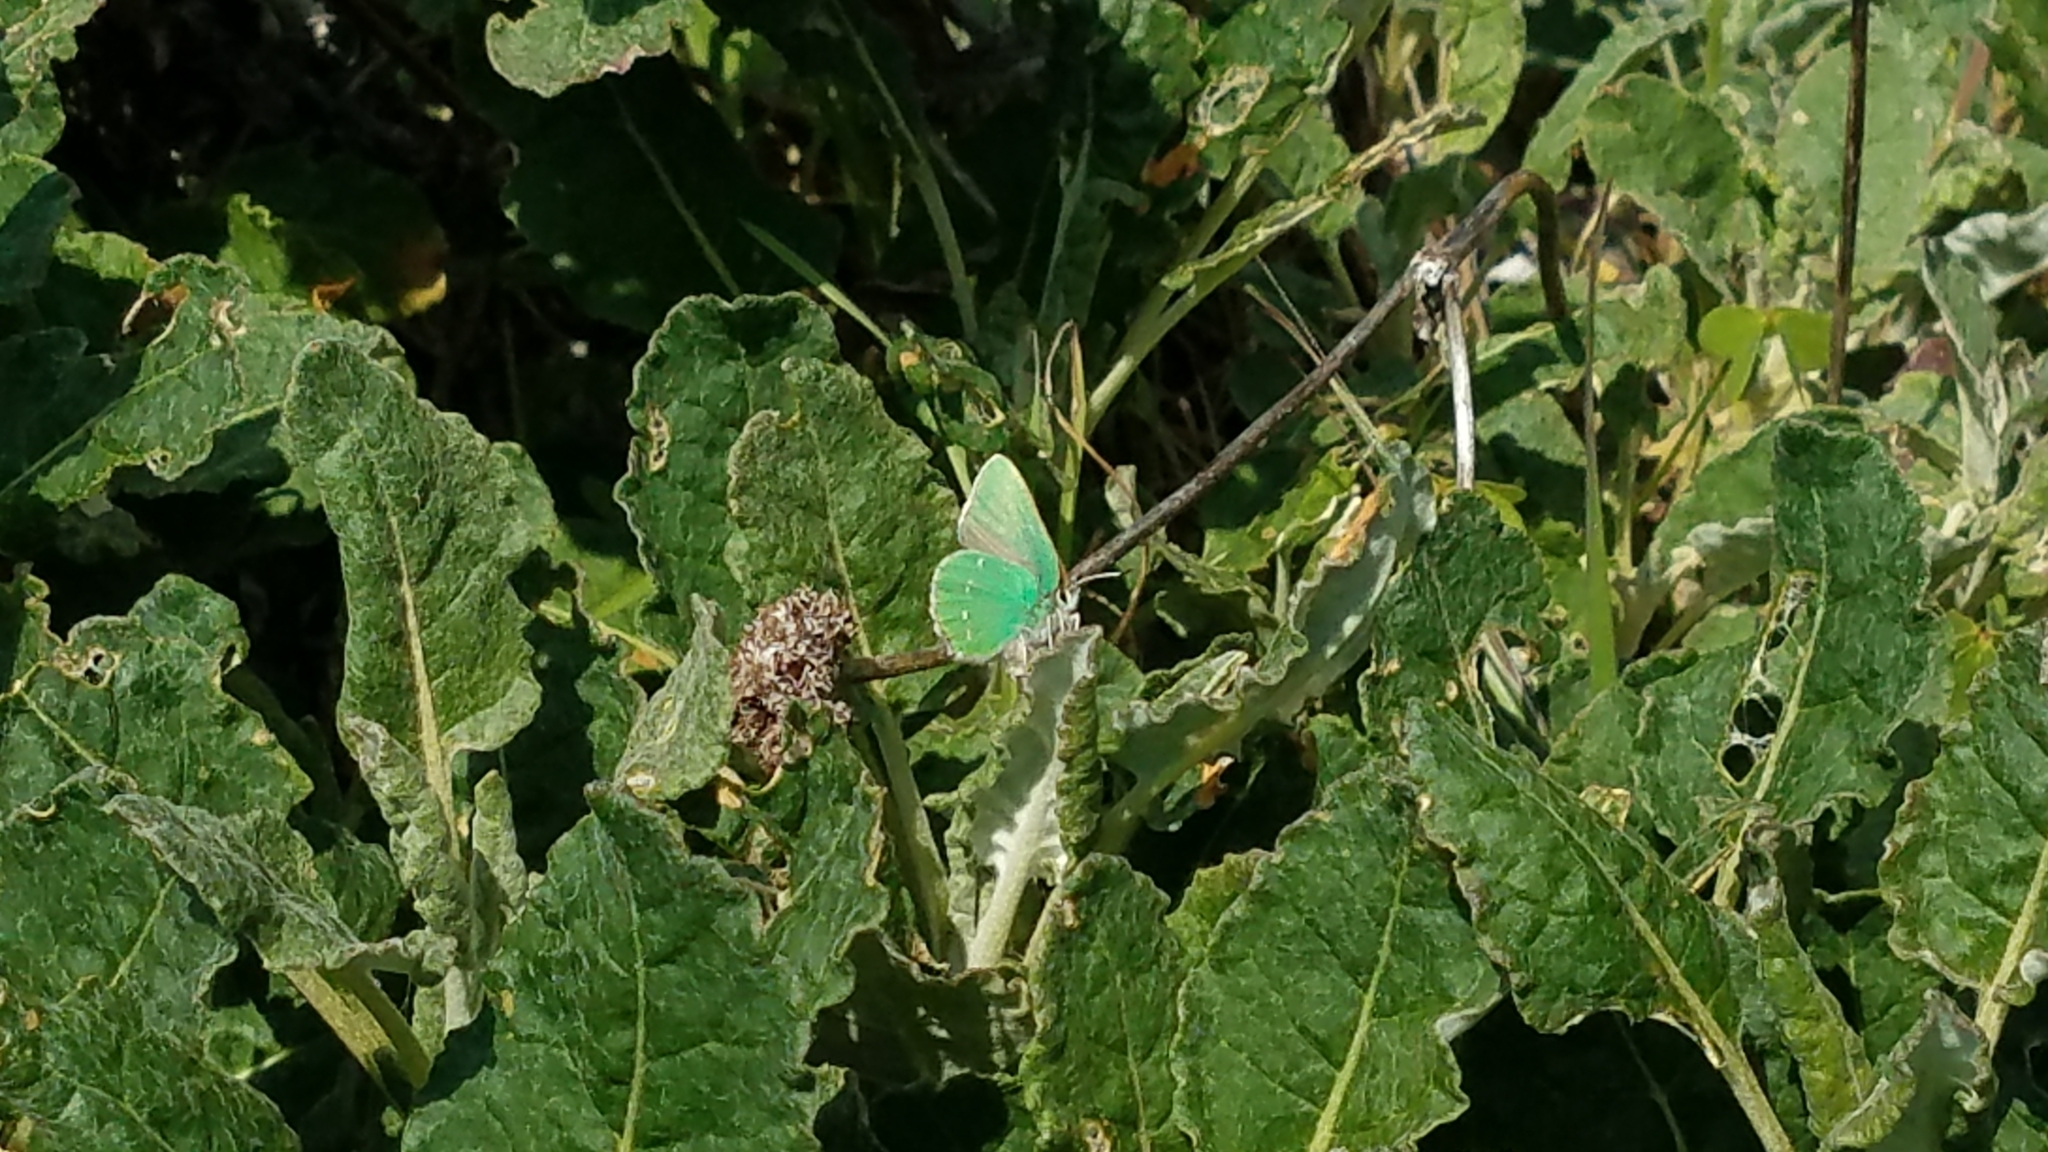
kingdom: Animalia
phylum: Arthropoda
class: Insecta
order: Lepidoptera
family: Lycaenidae
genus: Callophrys
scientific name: Callophrys viridis
